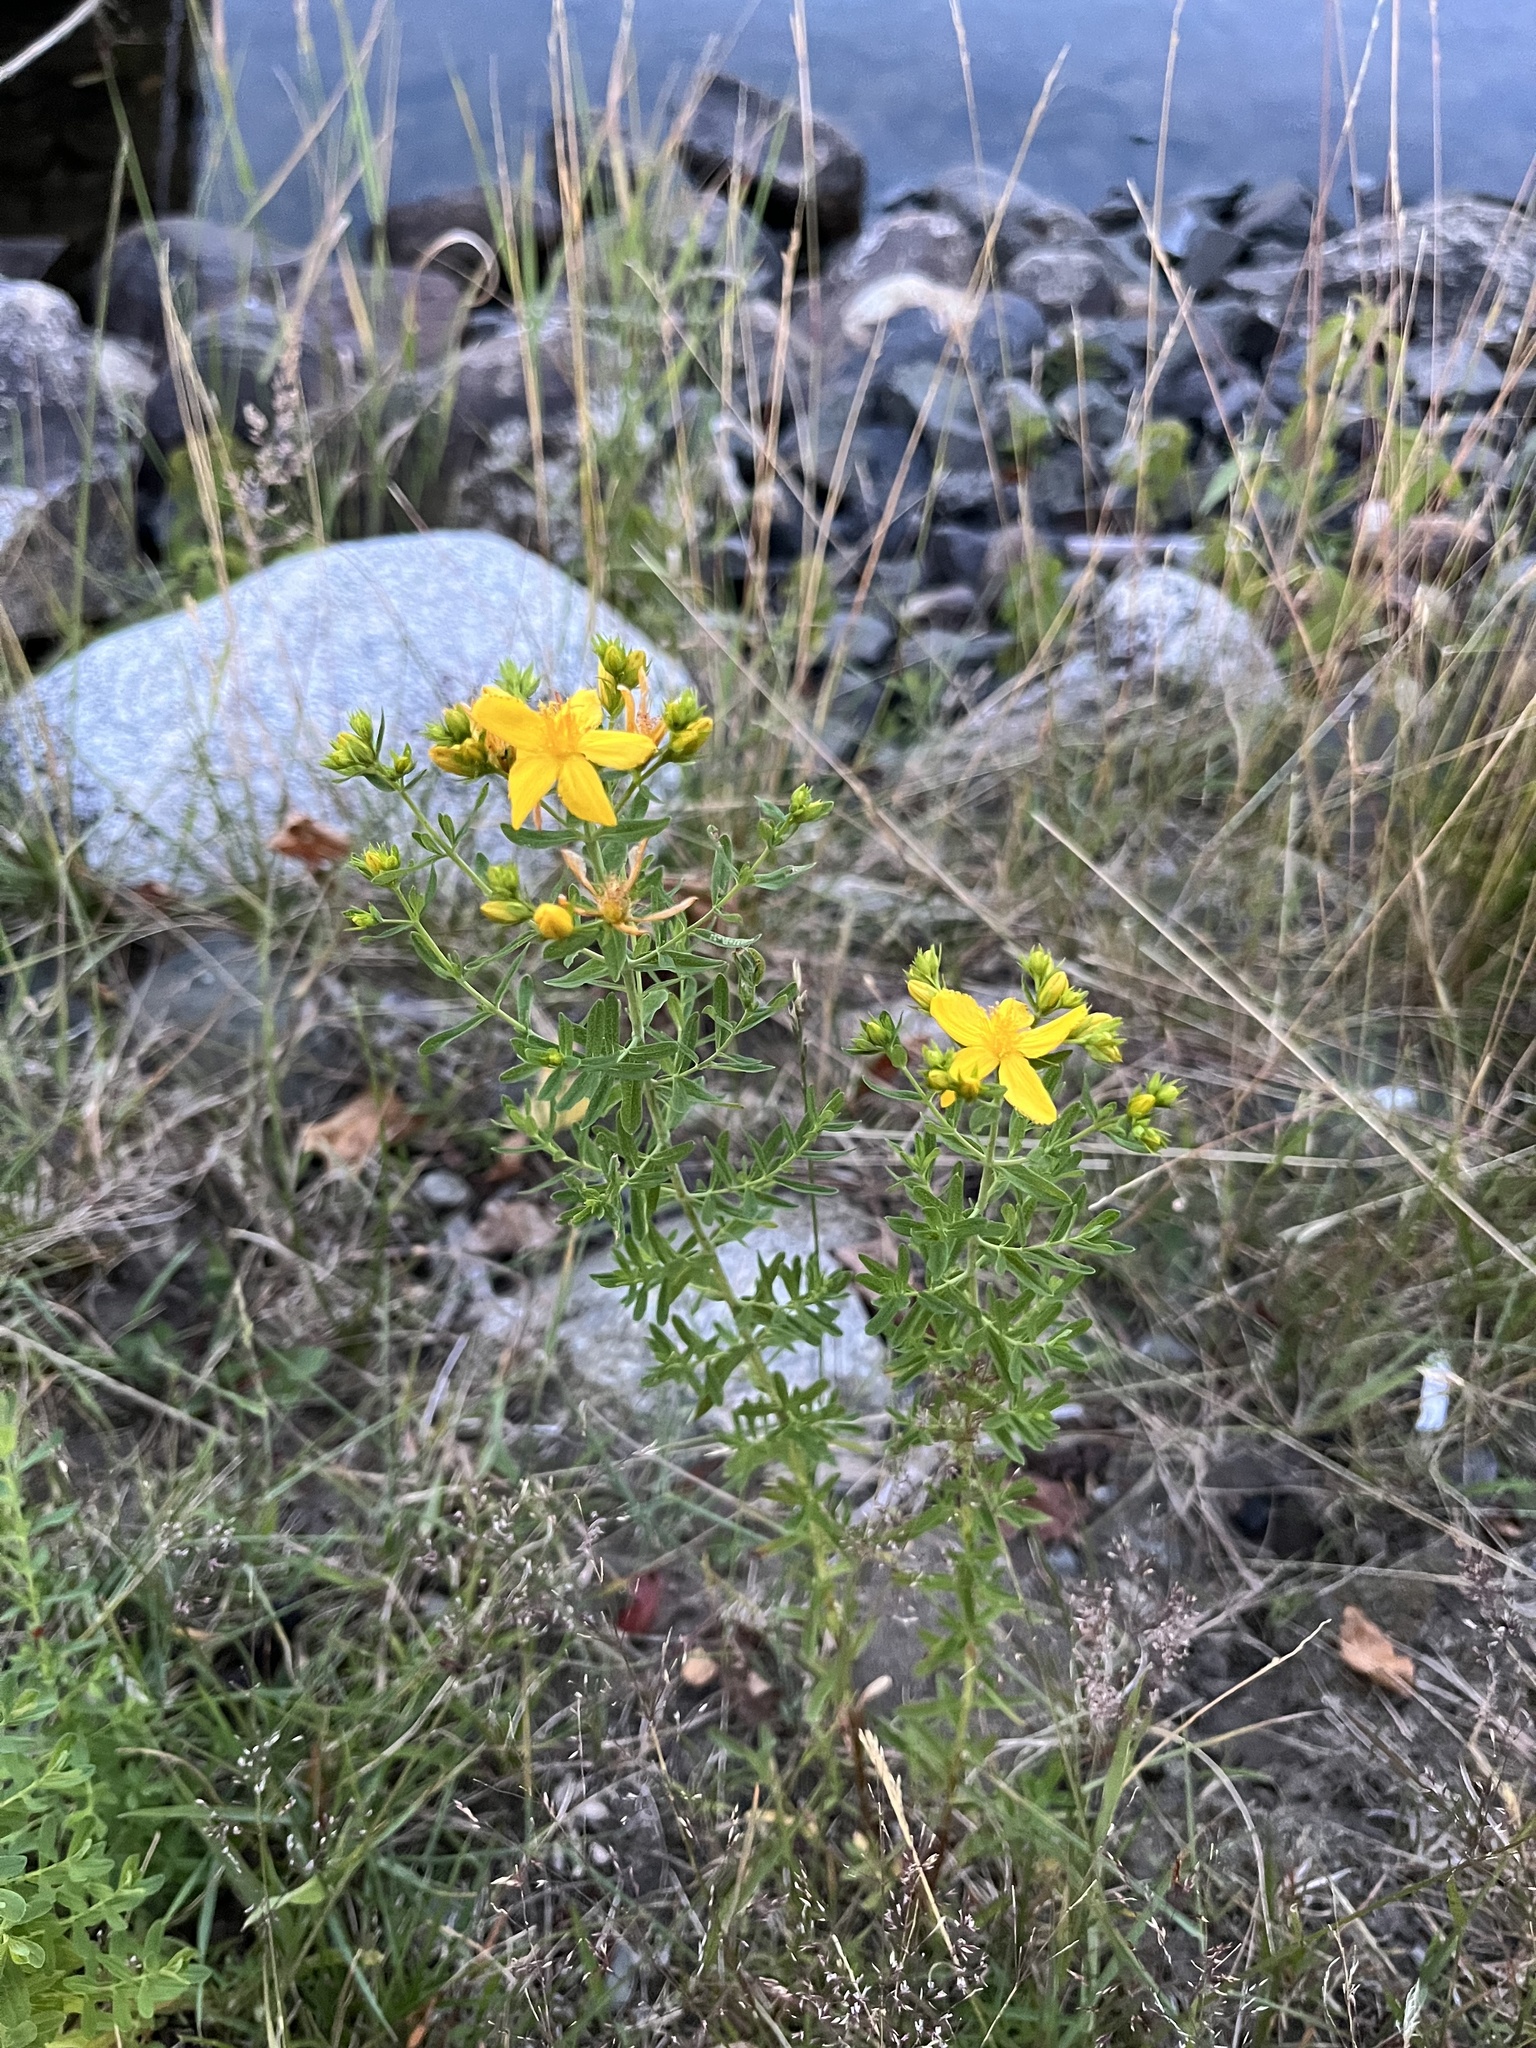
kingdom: Plantae
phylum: Tracheophyta
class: Magnoliopsida
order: Malpighiales
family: Hypericaceae
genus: Hypericum
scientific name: Hypericum perforatum
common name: Common st. johnswort
